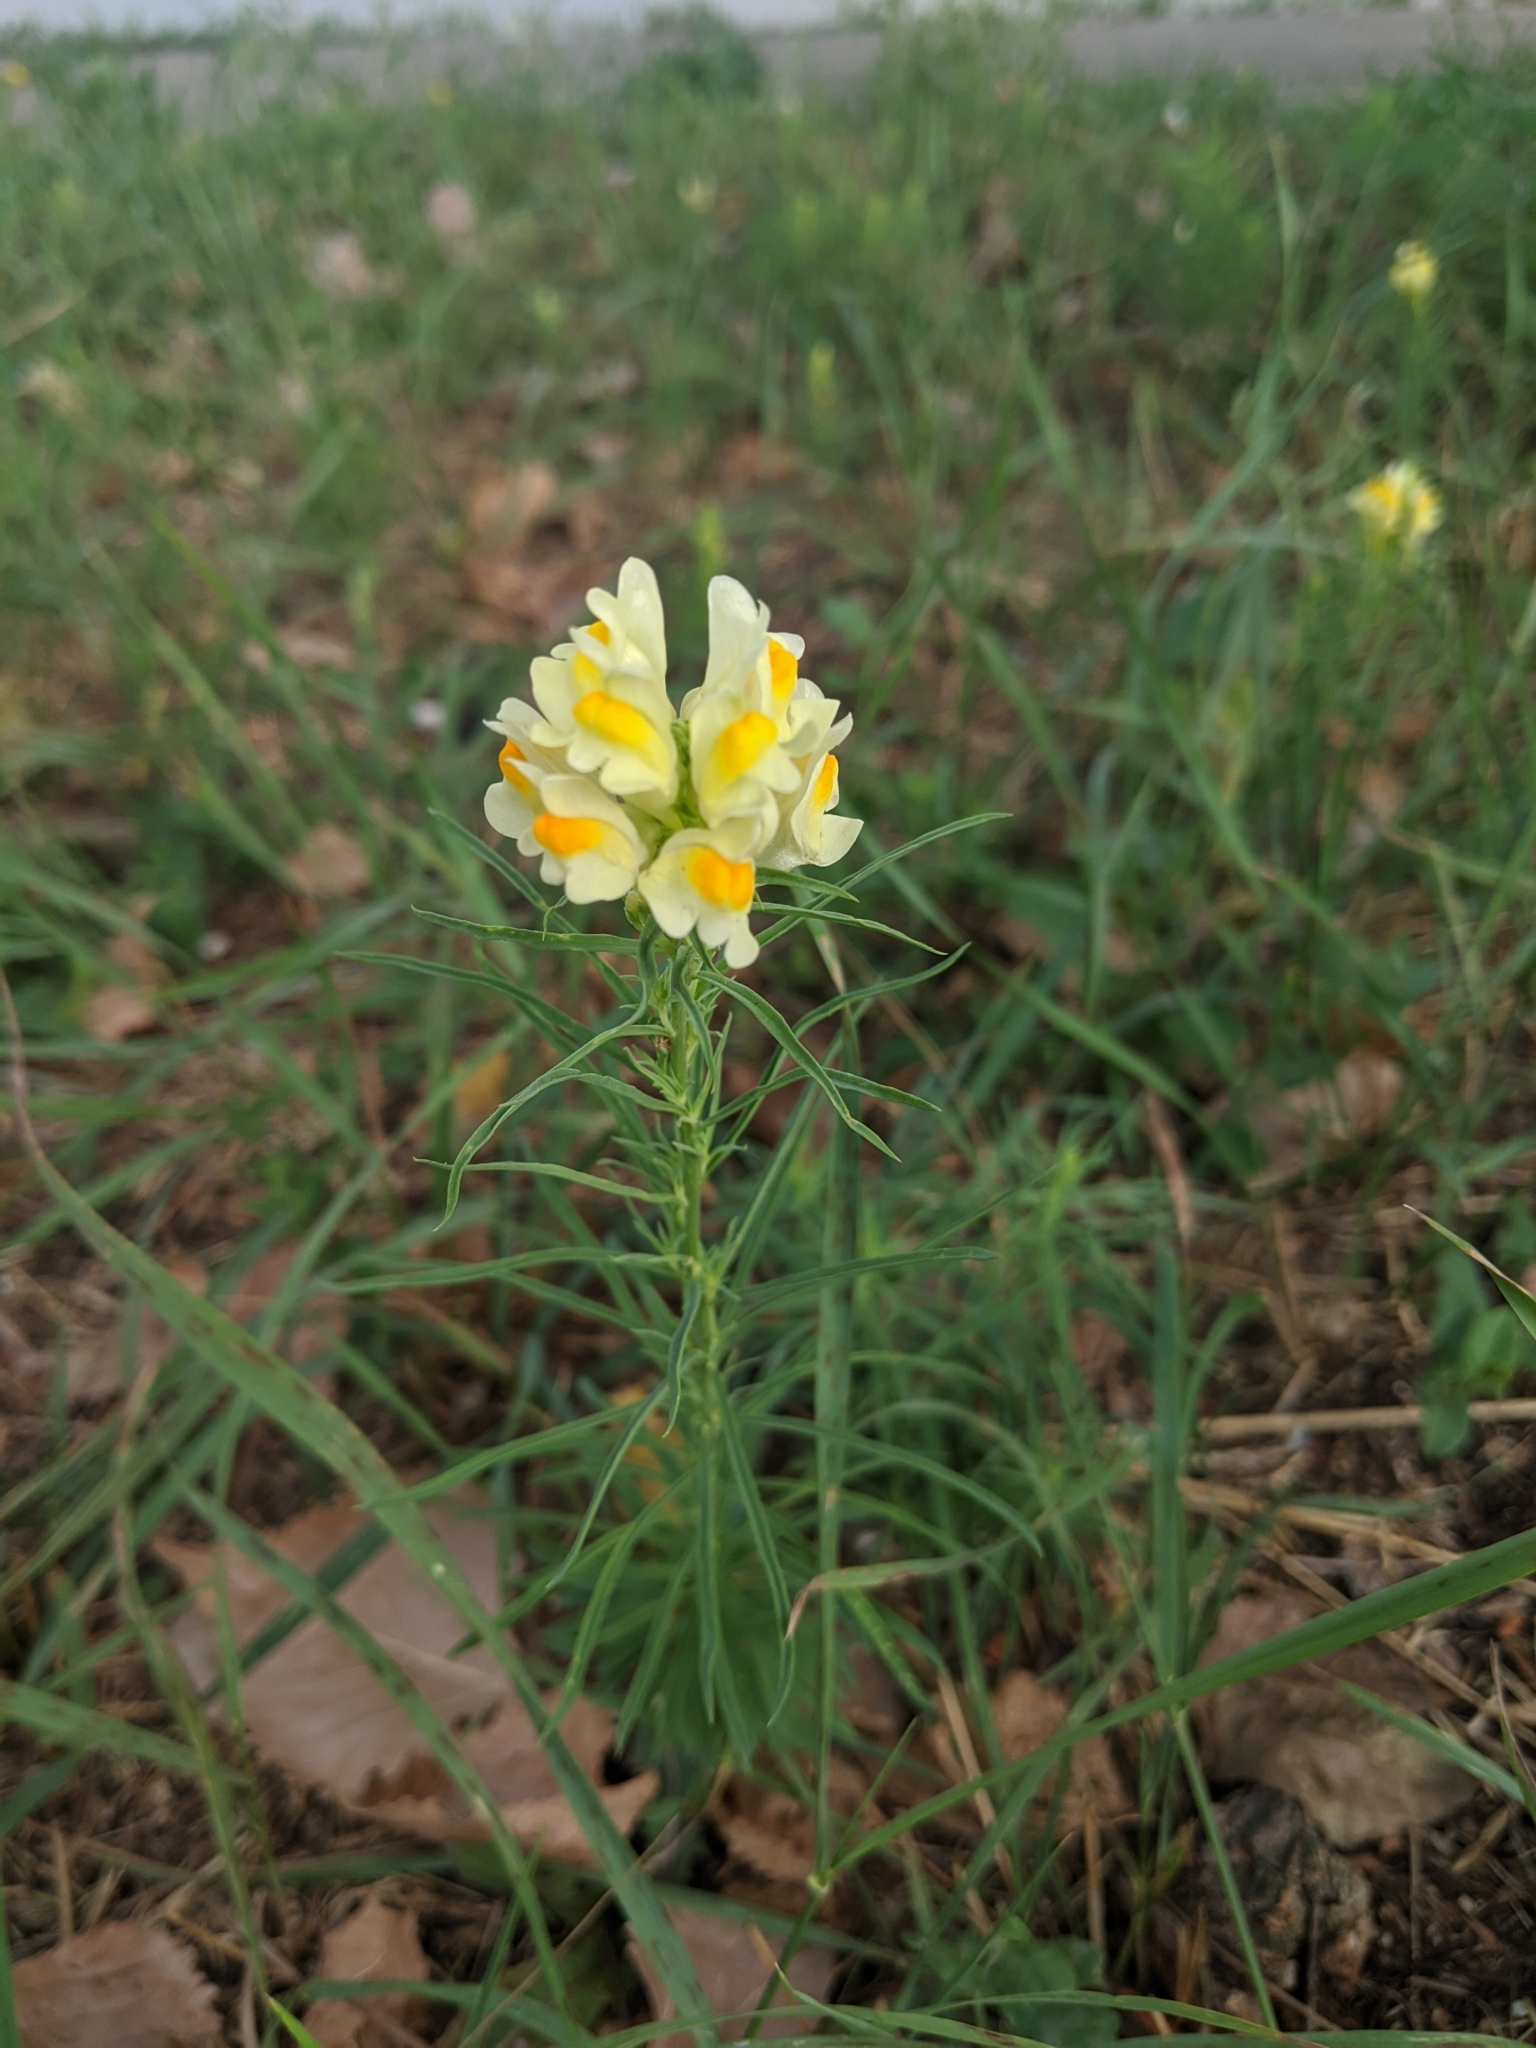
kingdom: Plantae
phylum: Tracheophyta
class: Magnoliopsida
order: Lamiales
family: Plantaginaceae
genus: Linaria
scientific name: Linaria vulgaris
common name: Butter and eggs
